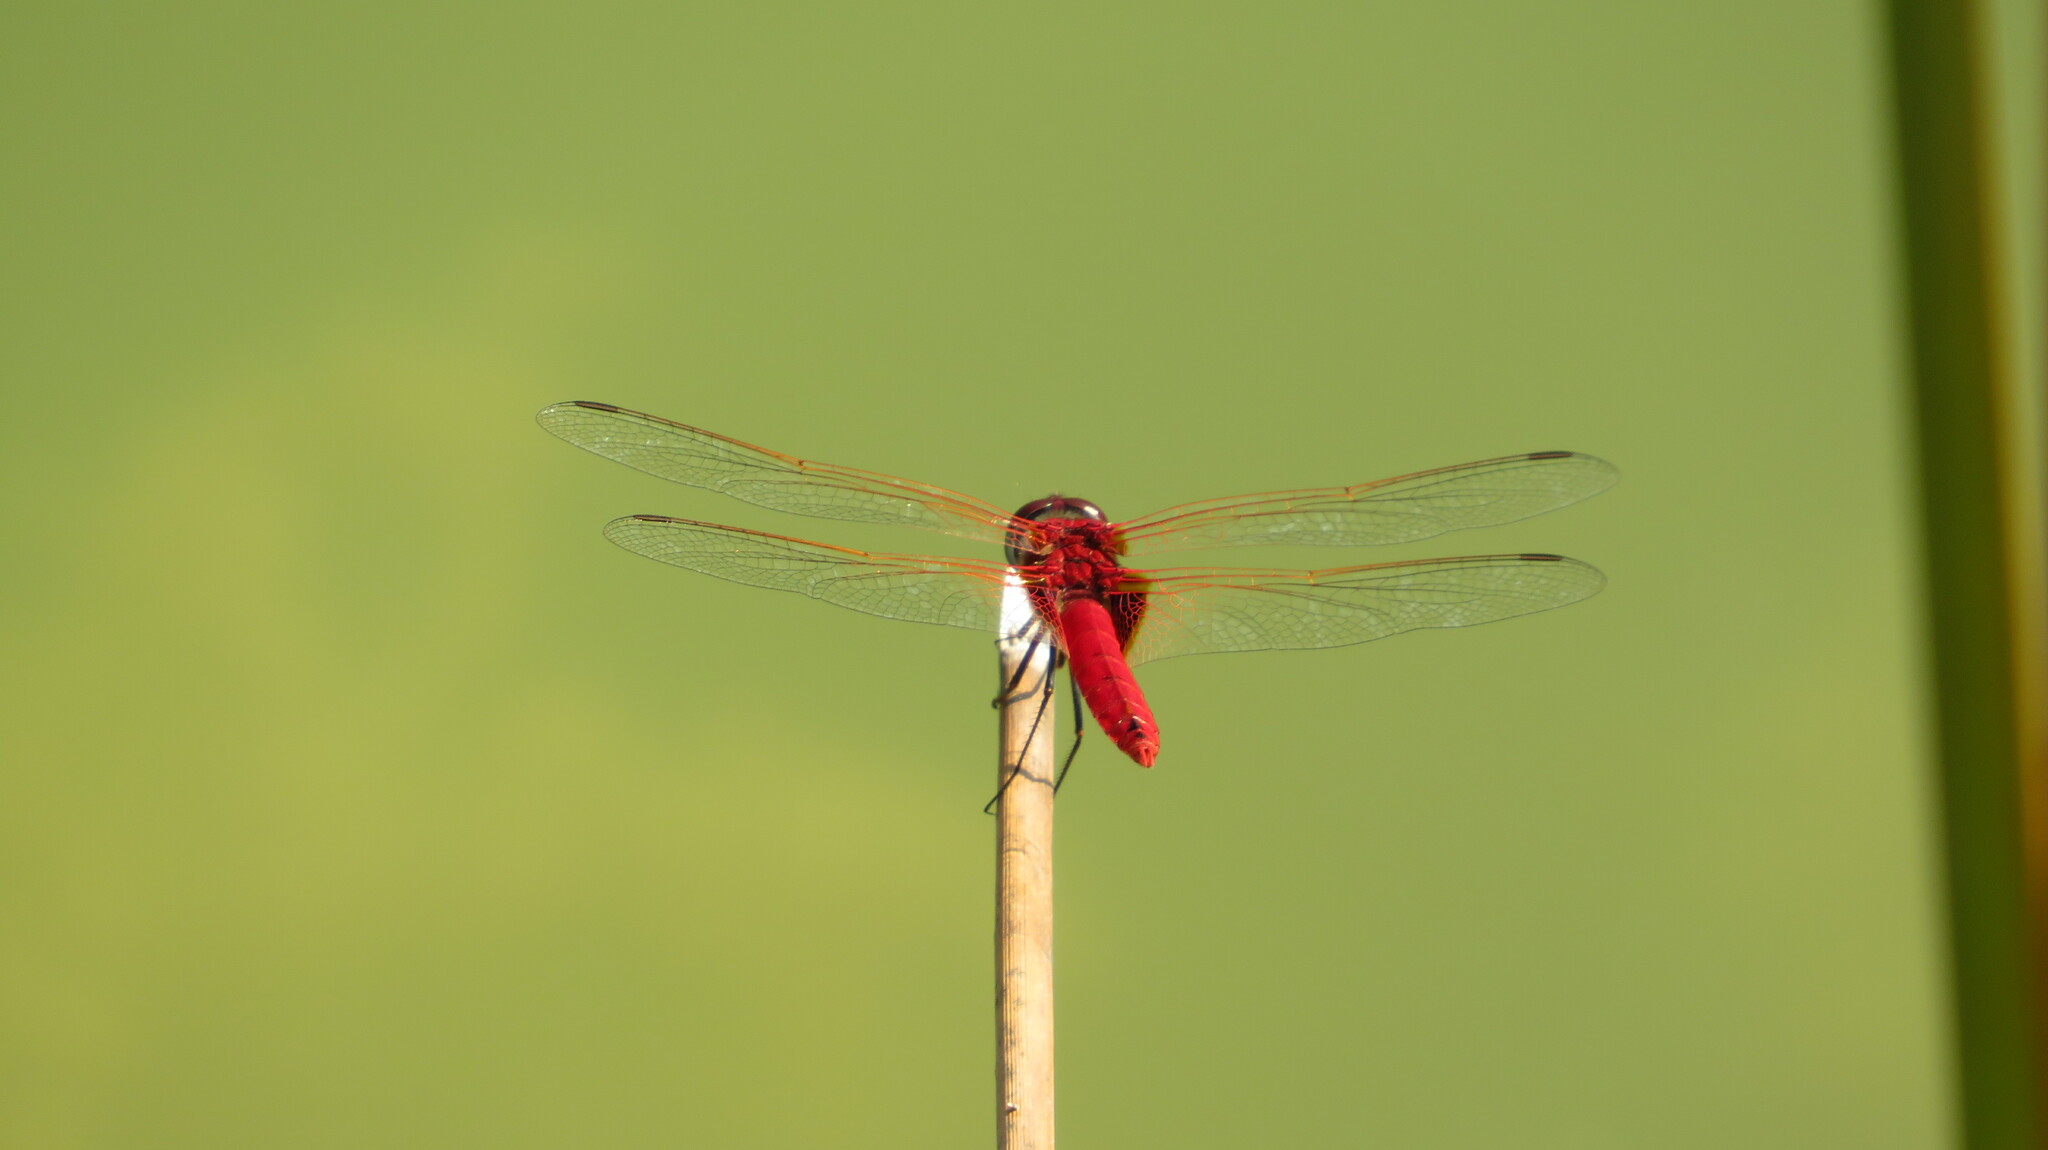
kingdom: Animalia
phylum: Arthropoda
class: Insecta
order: Odonata
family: Libellulidae
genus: Urothemis
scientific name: Urothemis signata
